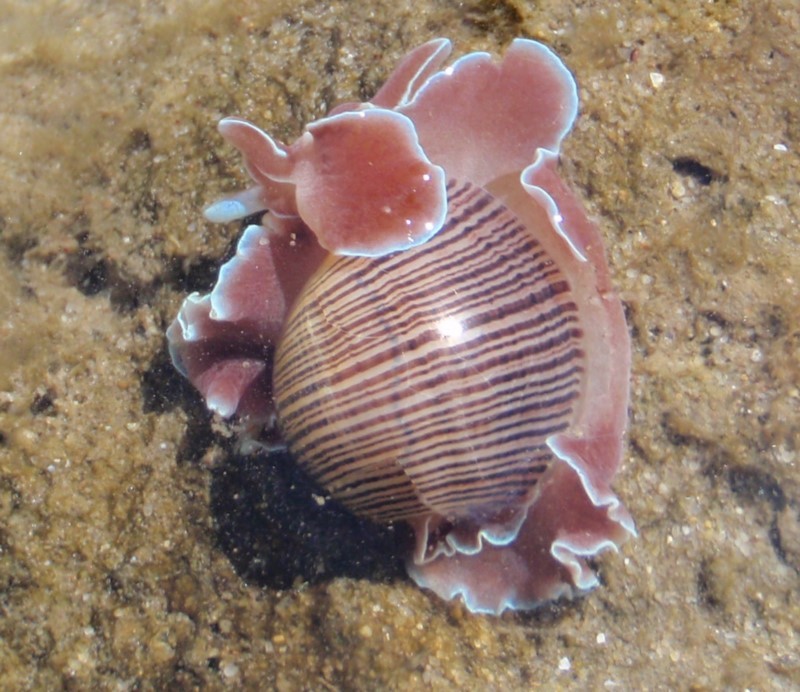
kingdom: Animalia
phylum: Mollusca
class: Gastropoda
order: Cephalaspidea
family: Aplustridae
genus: Hydatina
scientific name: Hydatina physis
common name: Brown-line paperbubble
